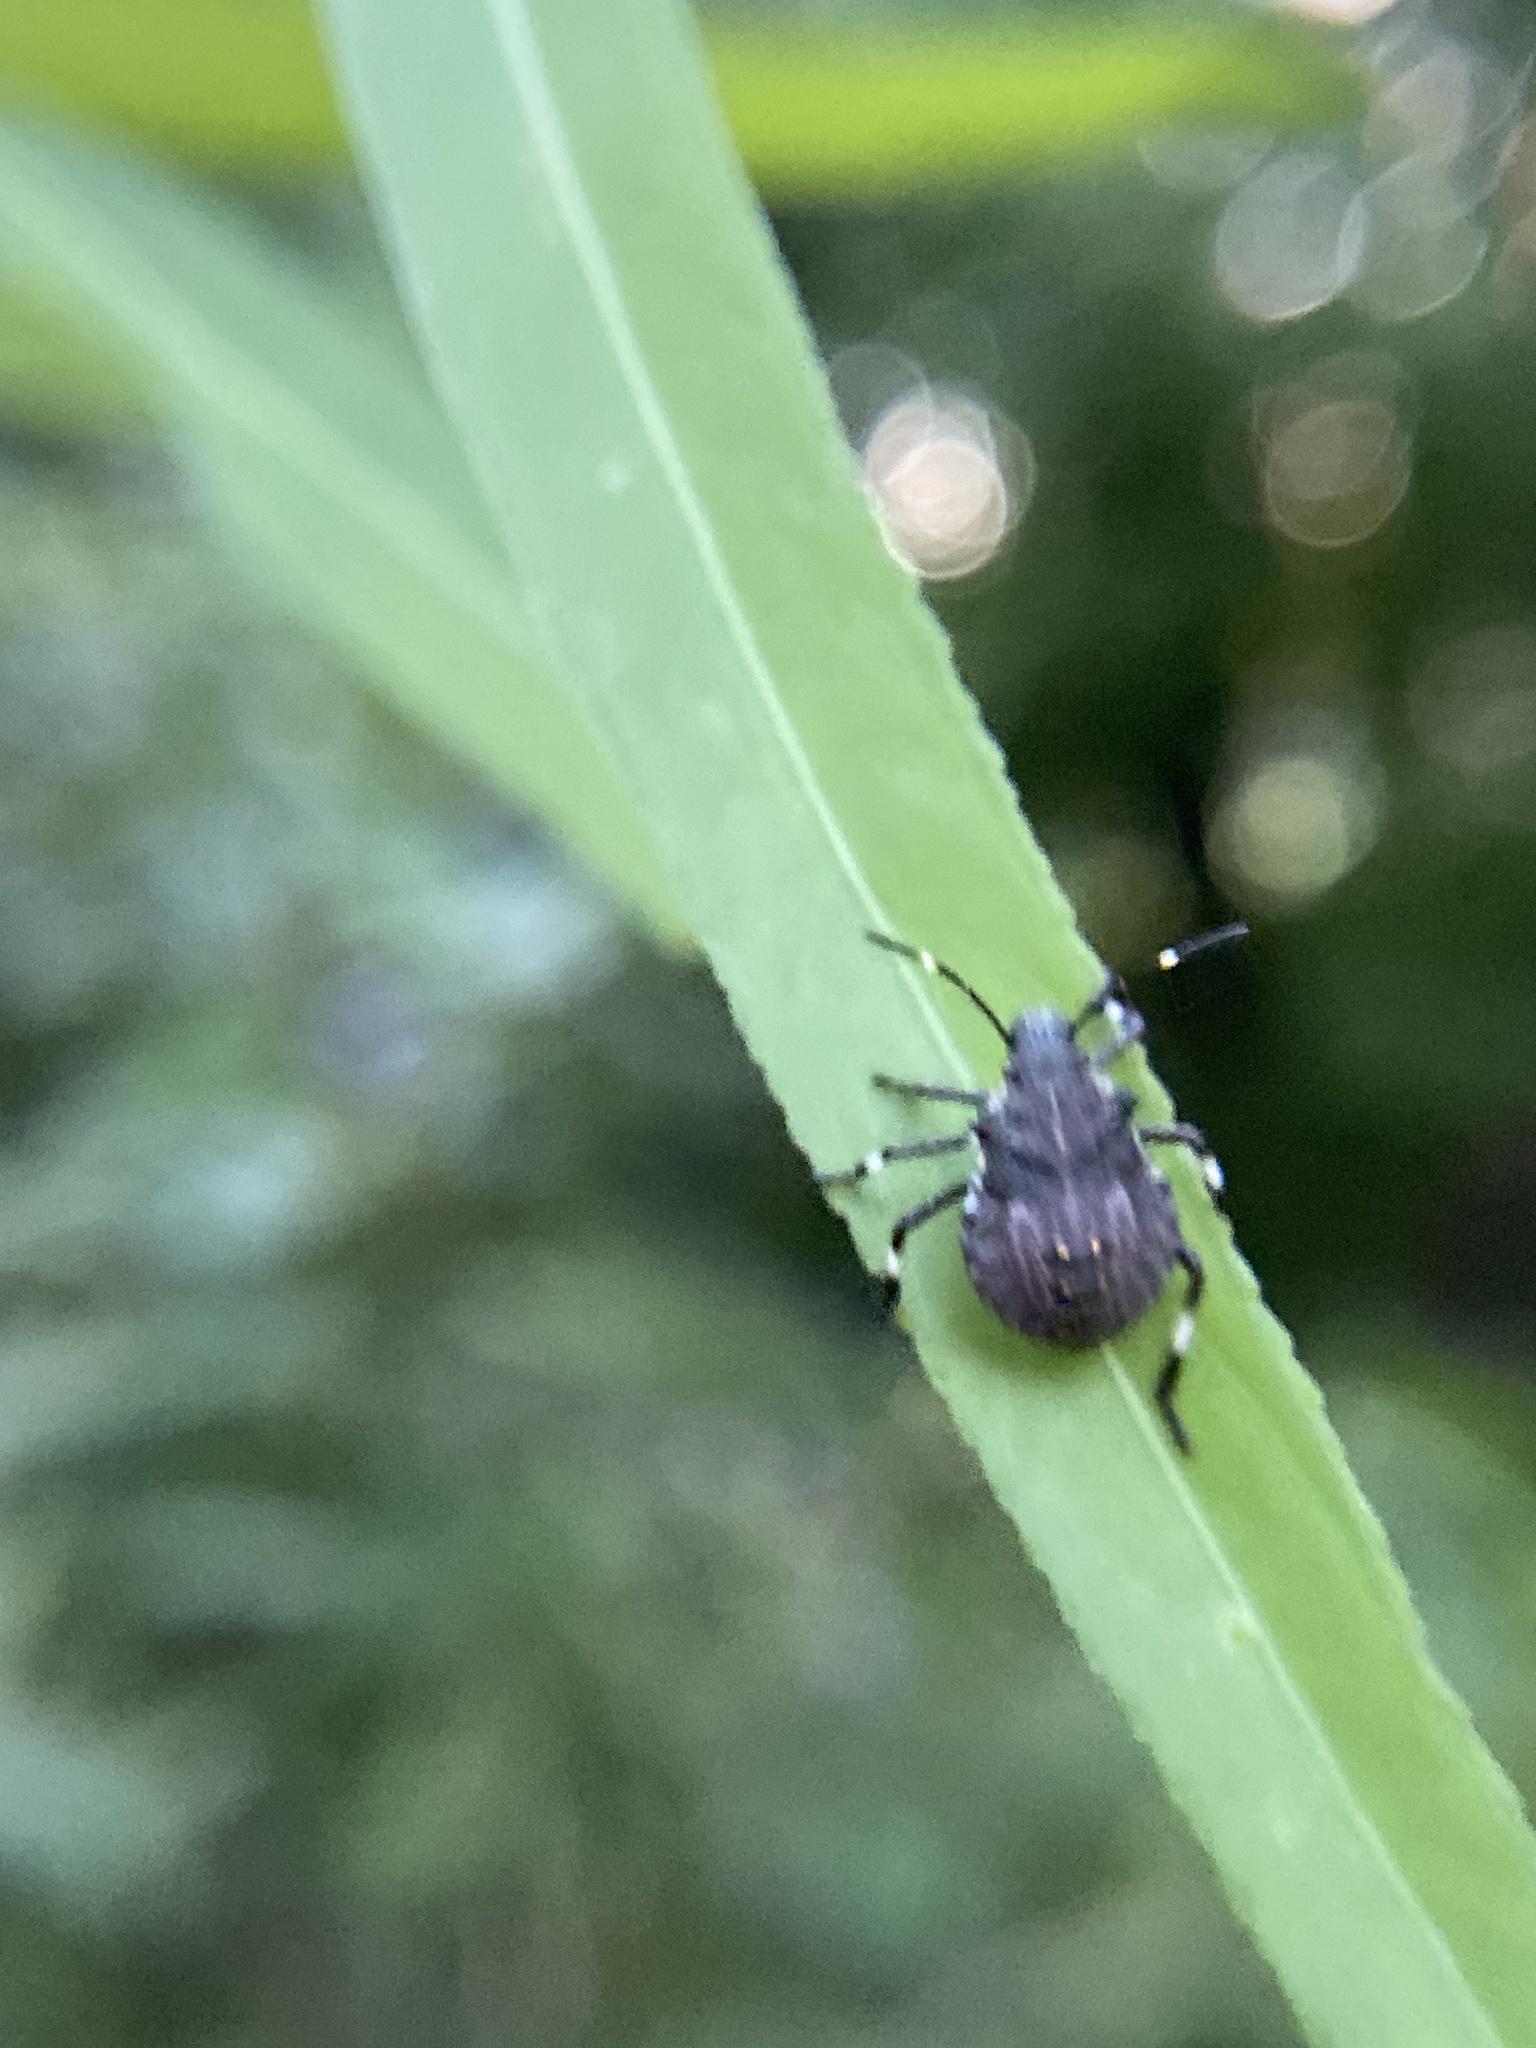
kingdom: Animalia
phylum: Arthropoda
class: Insecta
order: Hemiptera
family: Pentatomidae
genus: Halyomorpha
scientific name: Halyomorpha halys
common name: Brown marmorated stink bug
